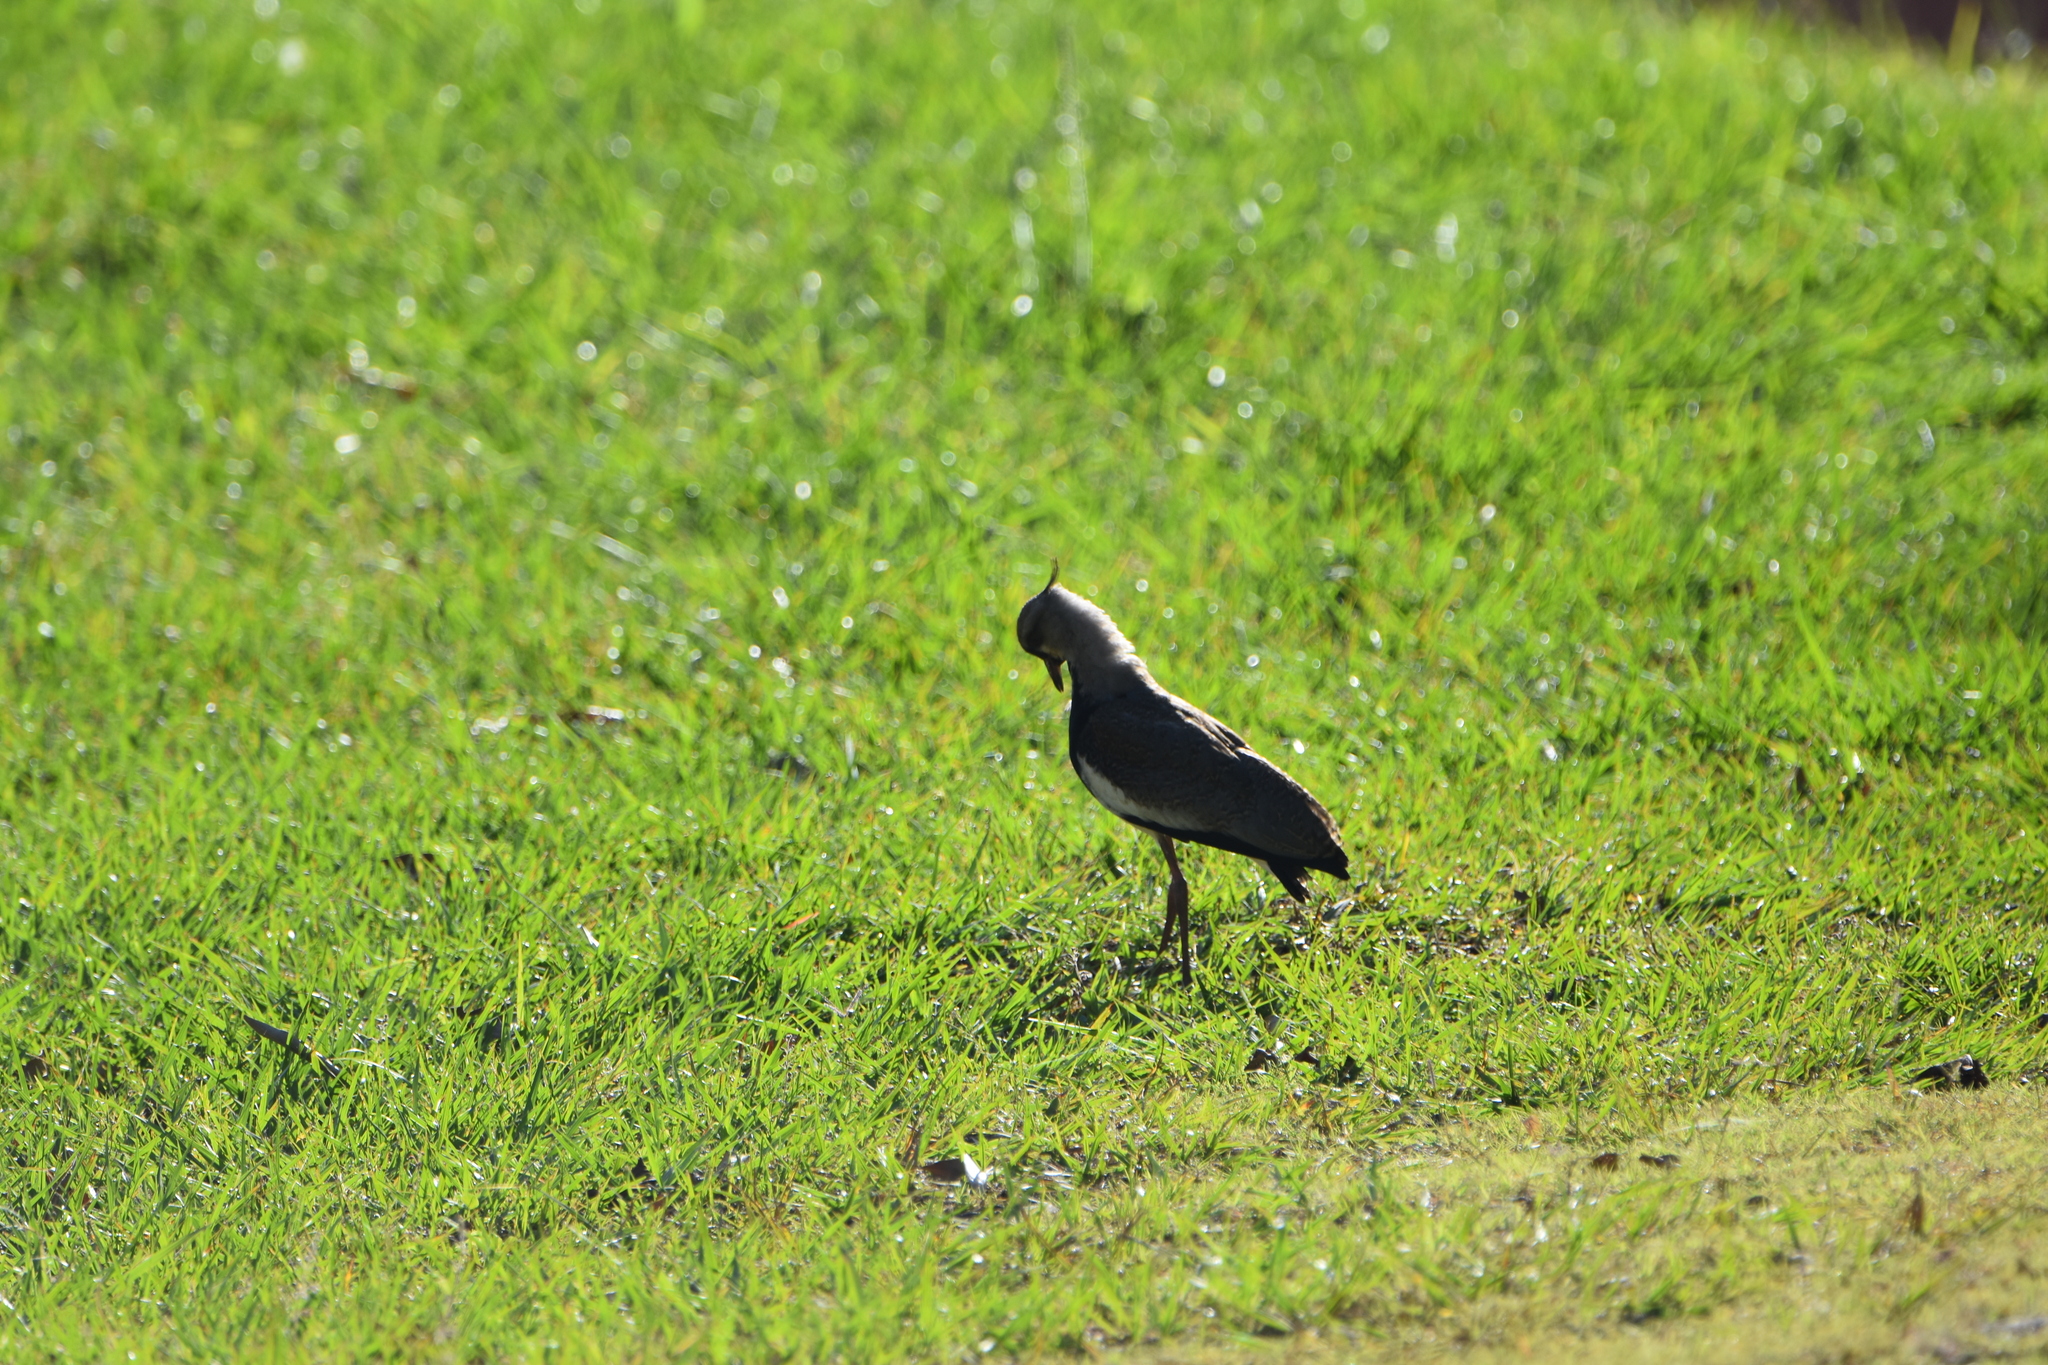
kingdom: Animalia
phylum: Chordata
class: Aves
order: Charadriiformes
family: Charadriidae
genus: Vanellus
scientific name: Vanellus chilensis
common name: Southern lapwing
